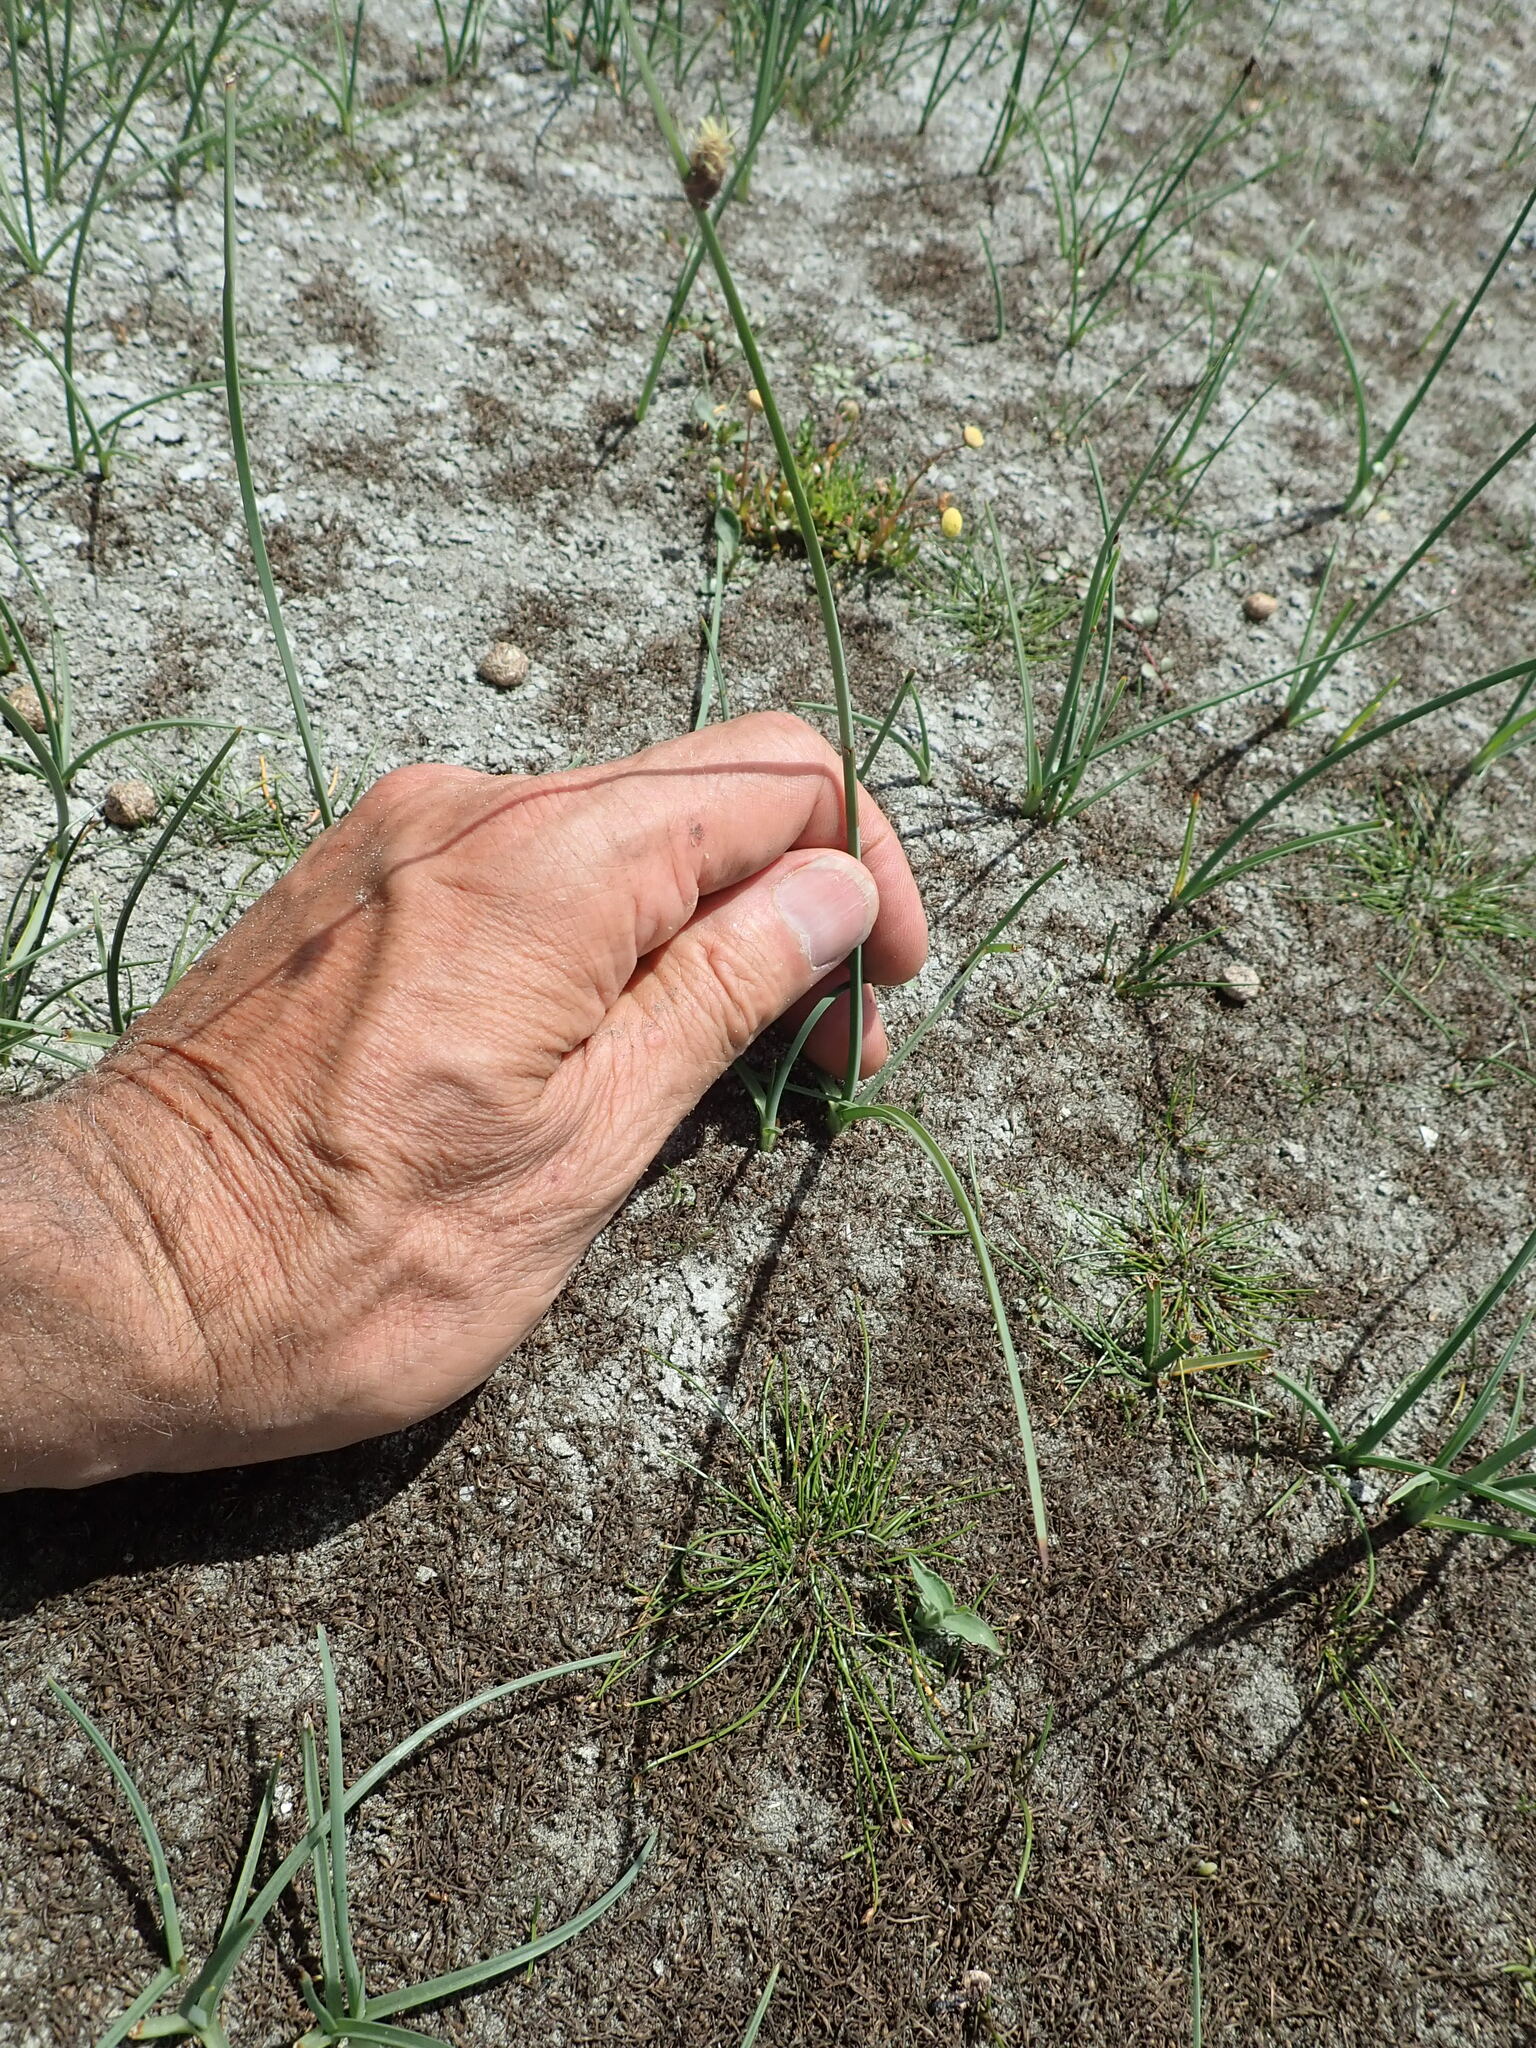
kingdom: Plantae
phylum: Tracheophyta
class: Liliopsida
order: Poales
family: Cyperaceae
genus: Schoenoplectus
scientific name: Schoenoplectus pungens
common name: Sharp club-rush
